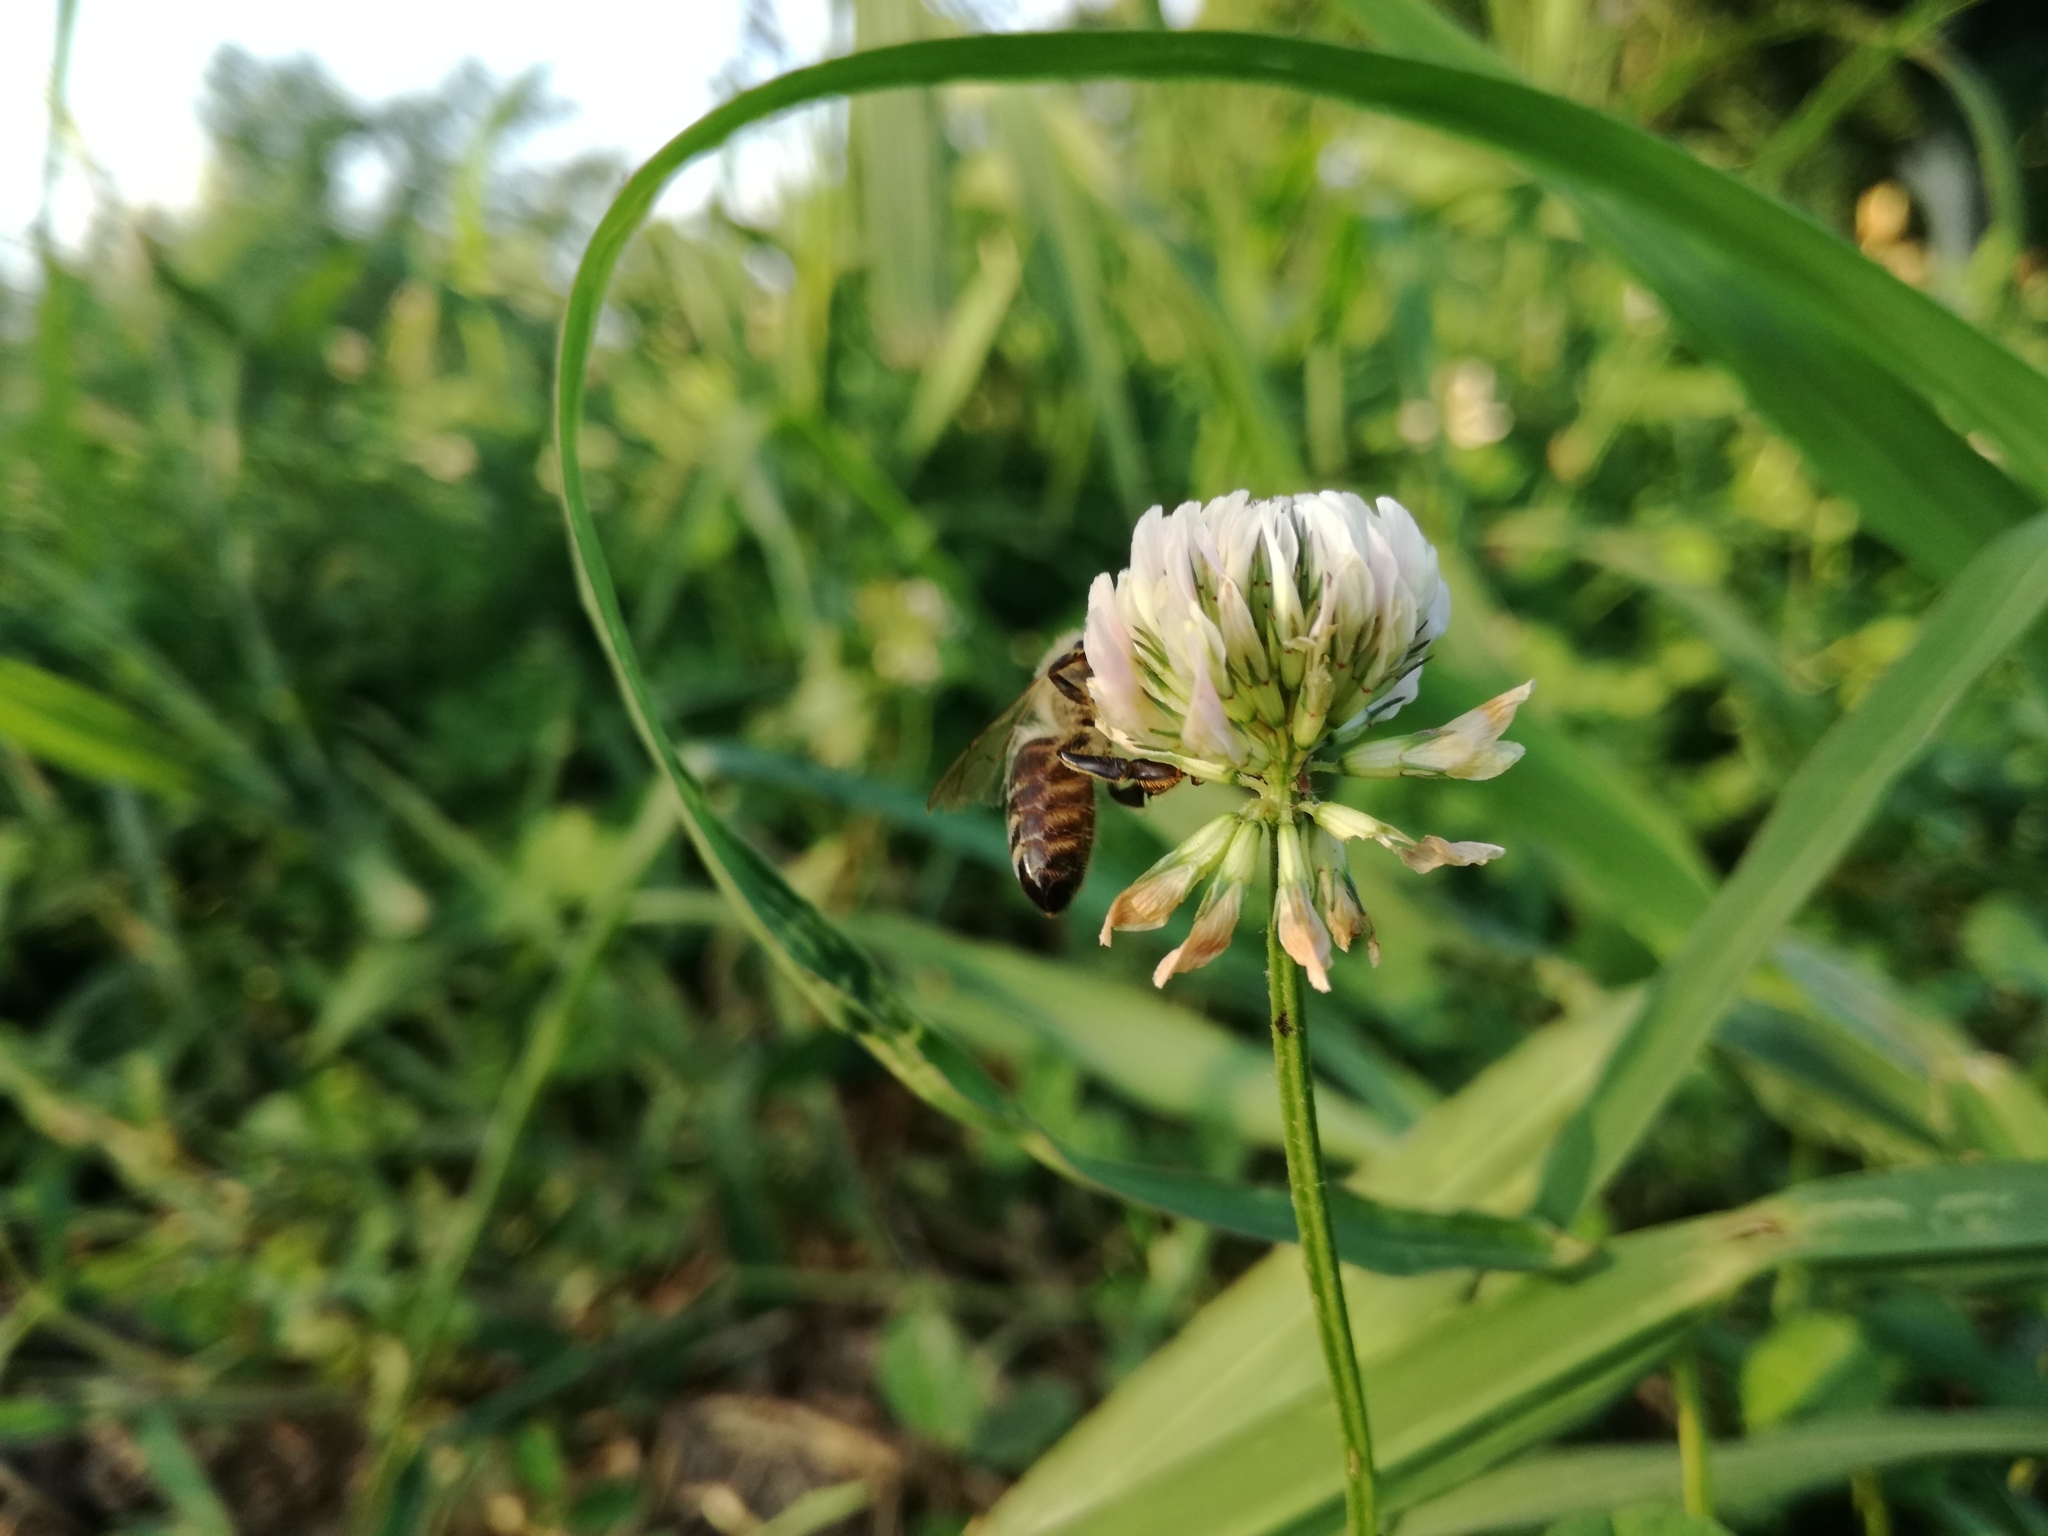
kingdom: Animalia
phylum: Arthropoda
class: Insecta
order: Hymenoptera
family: Apidae
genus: Apis
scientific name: Apis mellifera
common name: Honey bee
